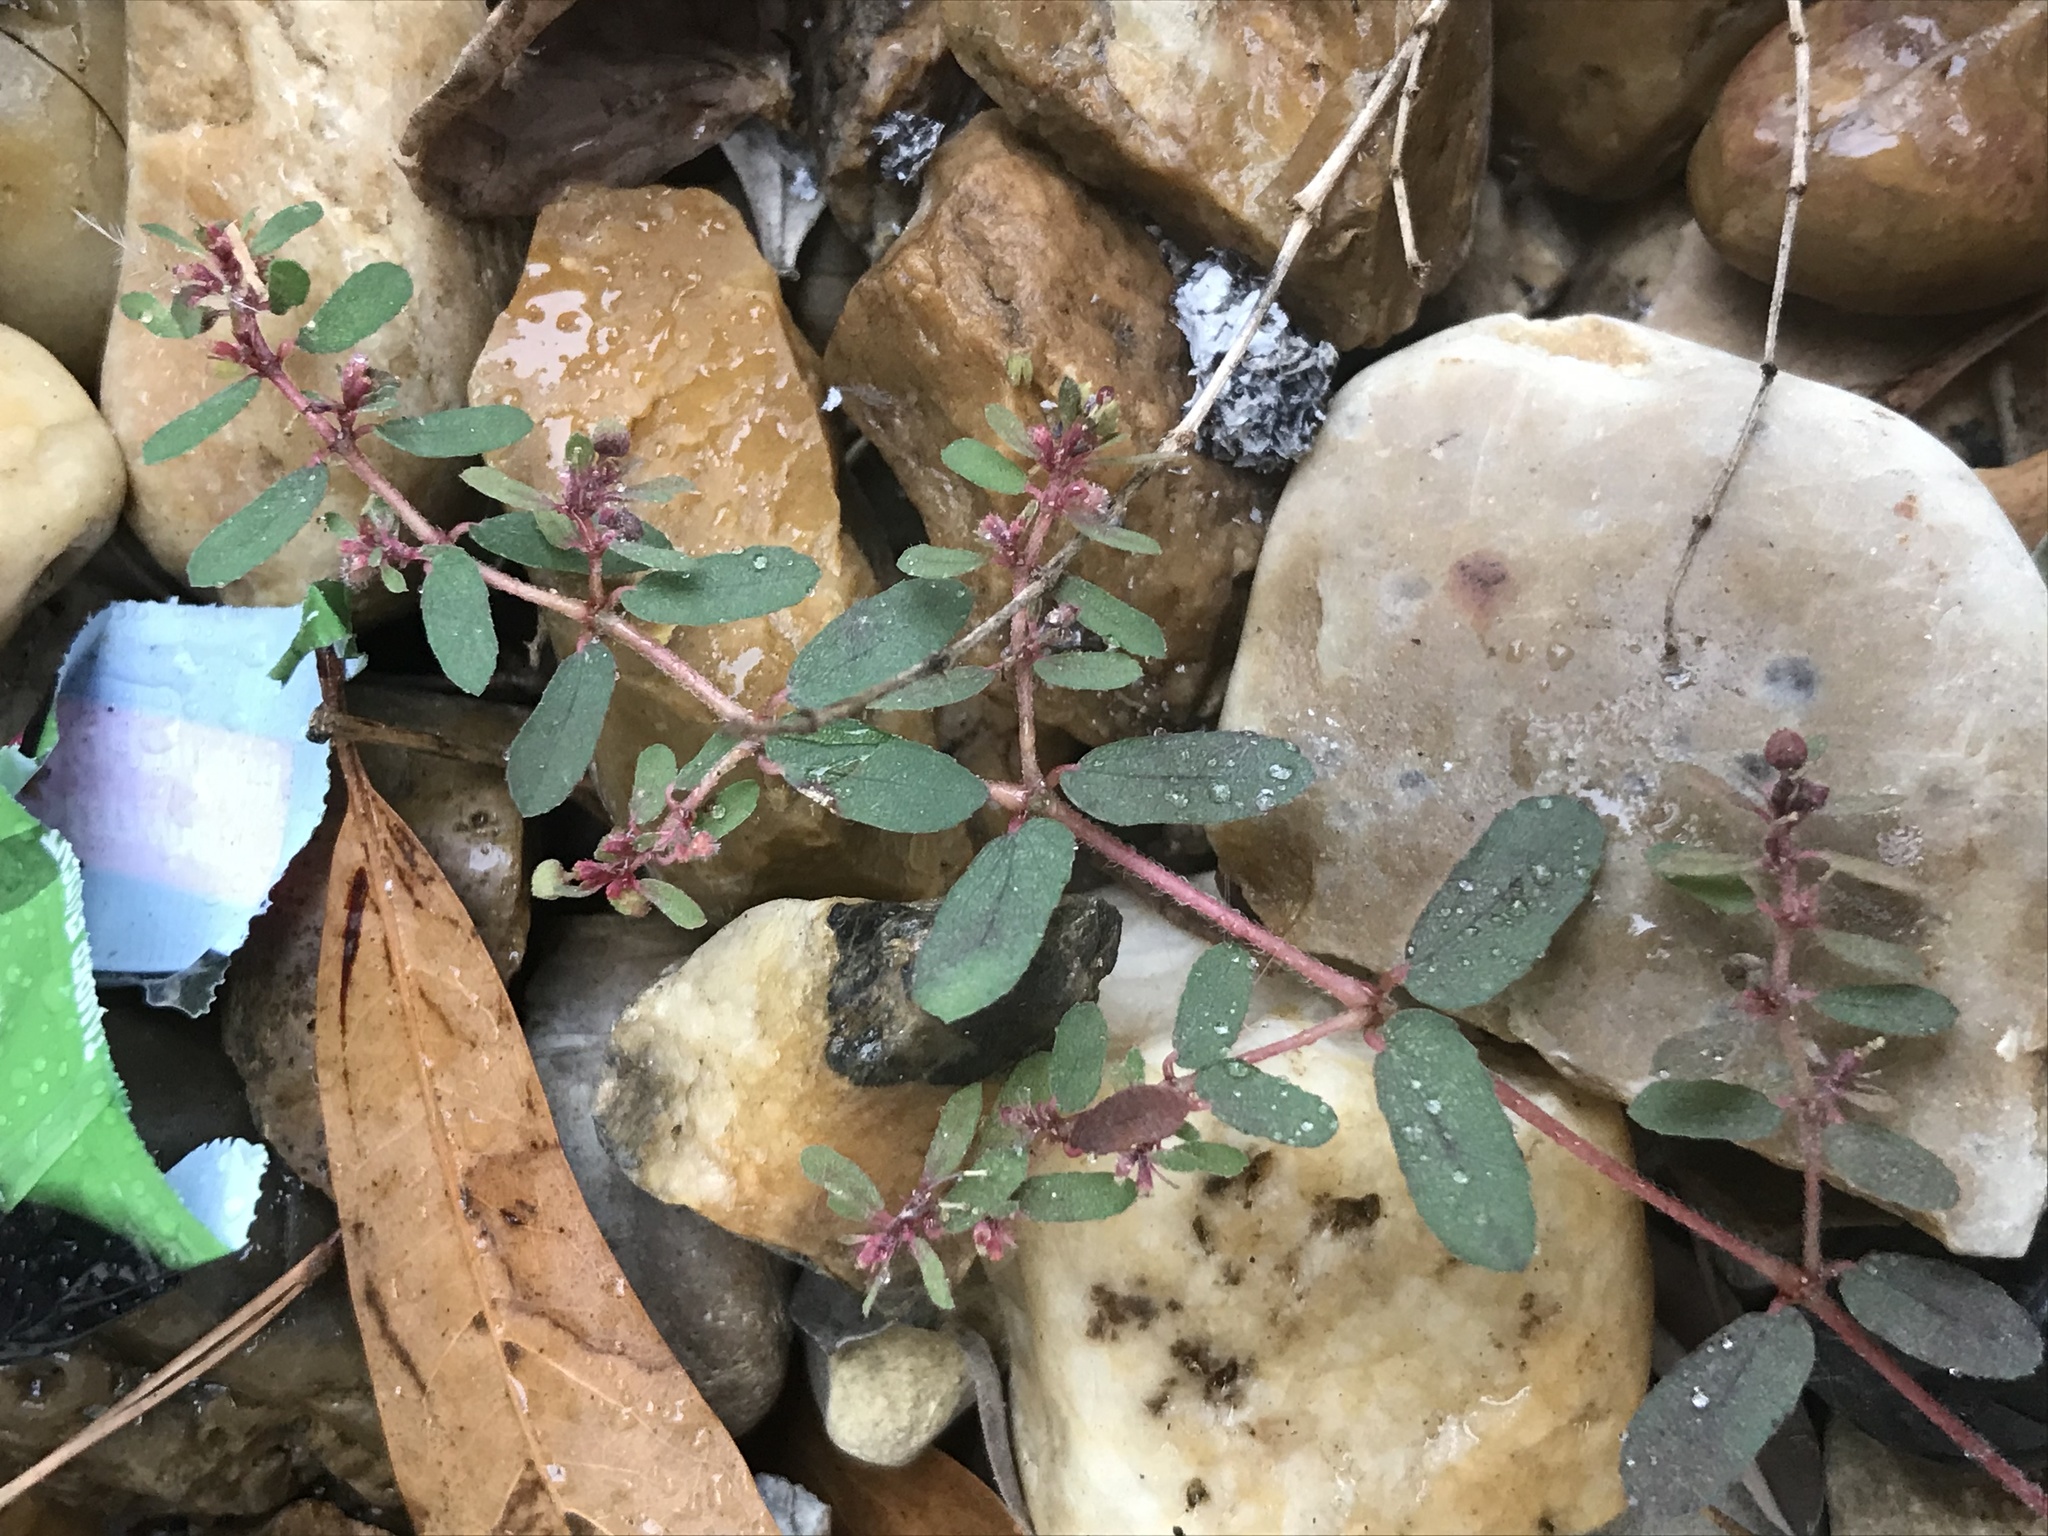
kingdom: Plantae
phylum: Tracheophyta
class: Magnoliopsida
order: Malpighiales
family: Euphorbiaceae
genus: Euphorbia
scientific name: Euphorbia maculata
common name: Spotted spurge
